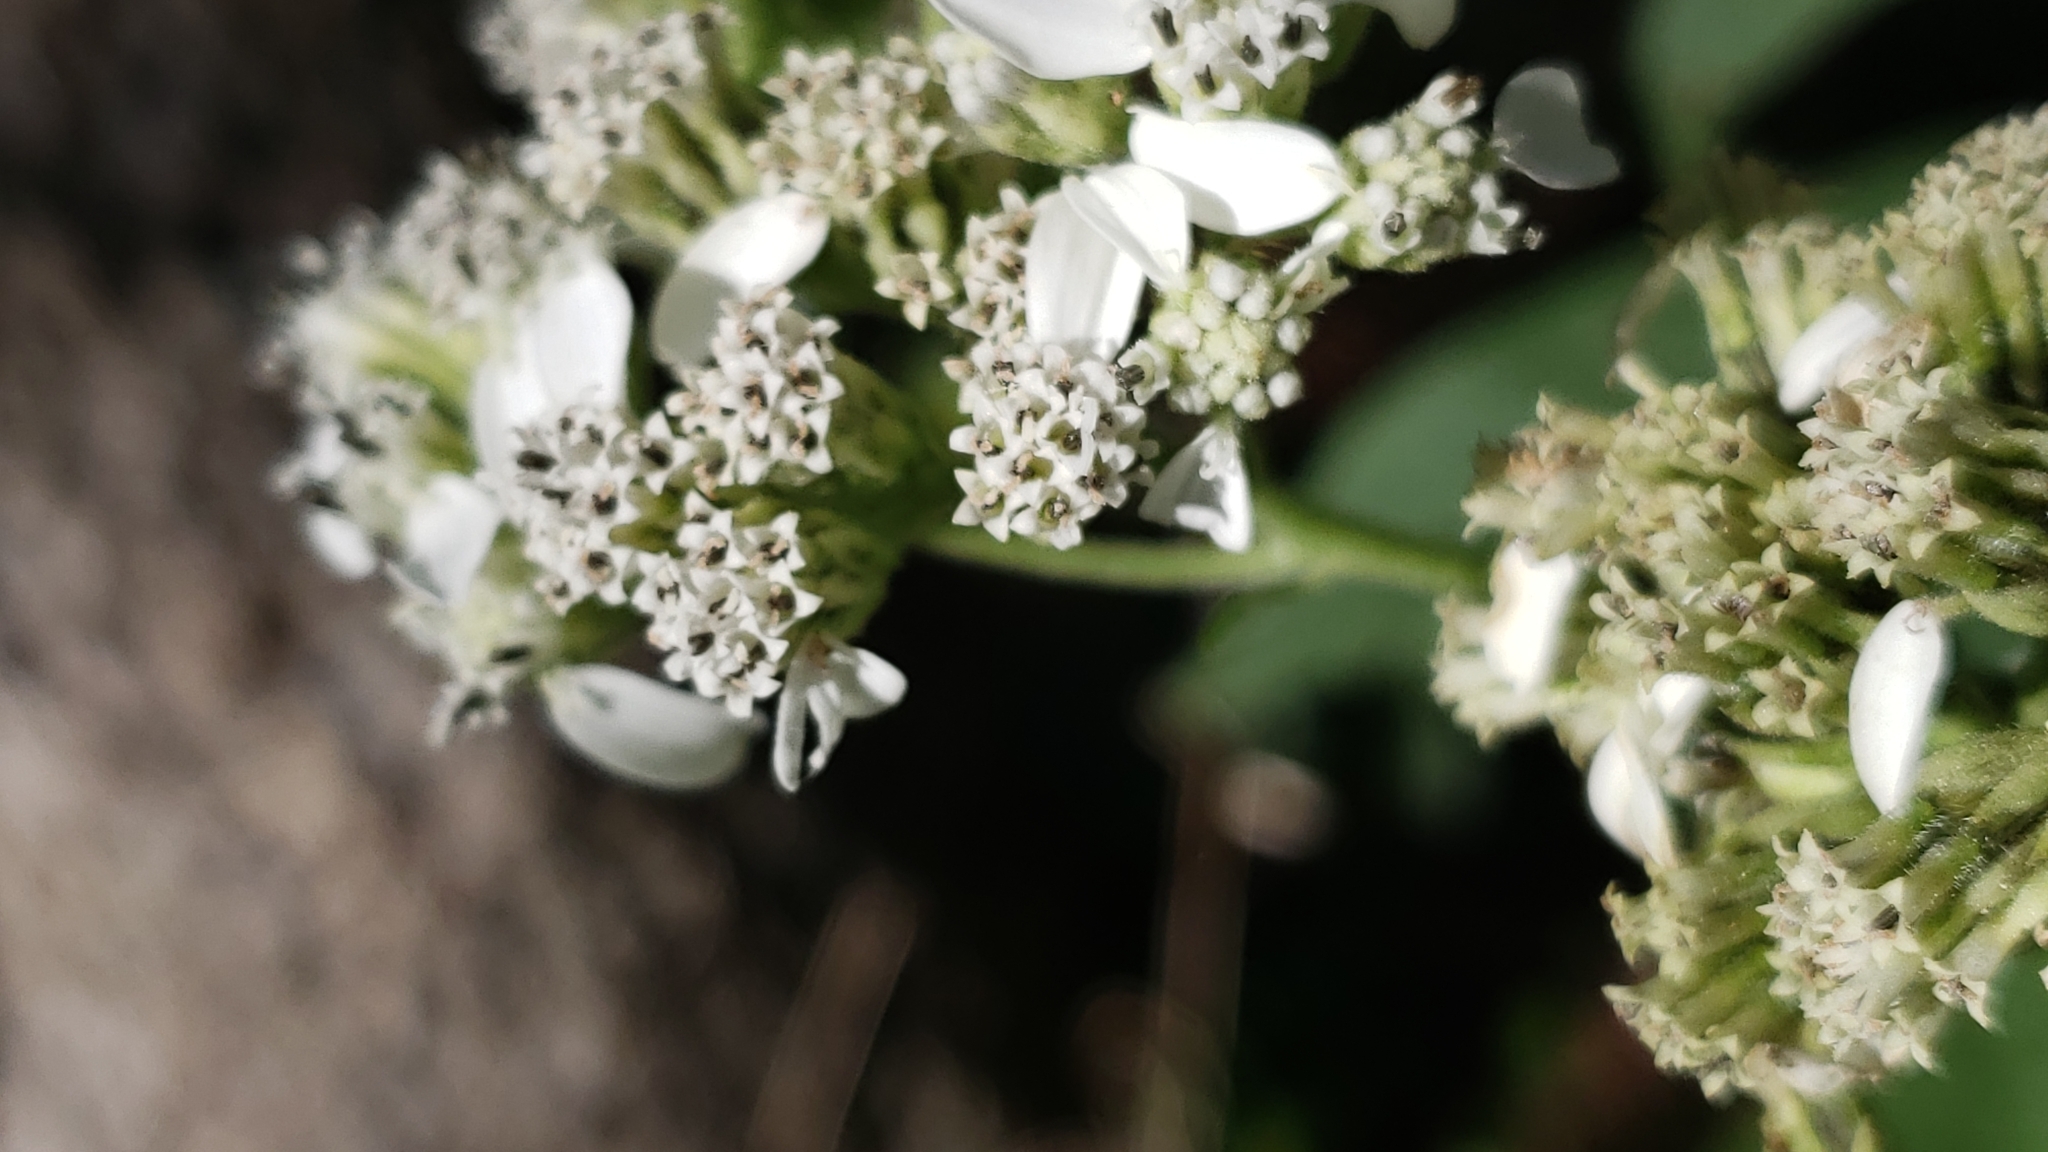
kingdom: Plantae
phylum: Tracheophyta
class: Magnoliopsida
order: Asterales
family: Asteraceae
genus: Verbesina
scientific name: Verbesina virginica
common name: Frostweed
